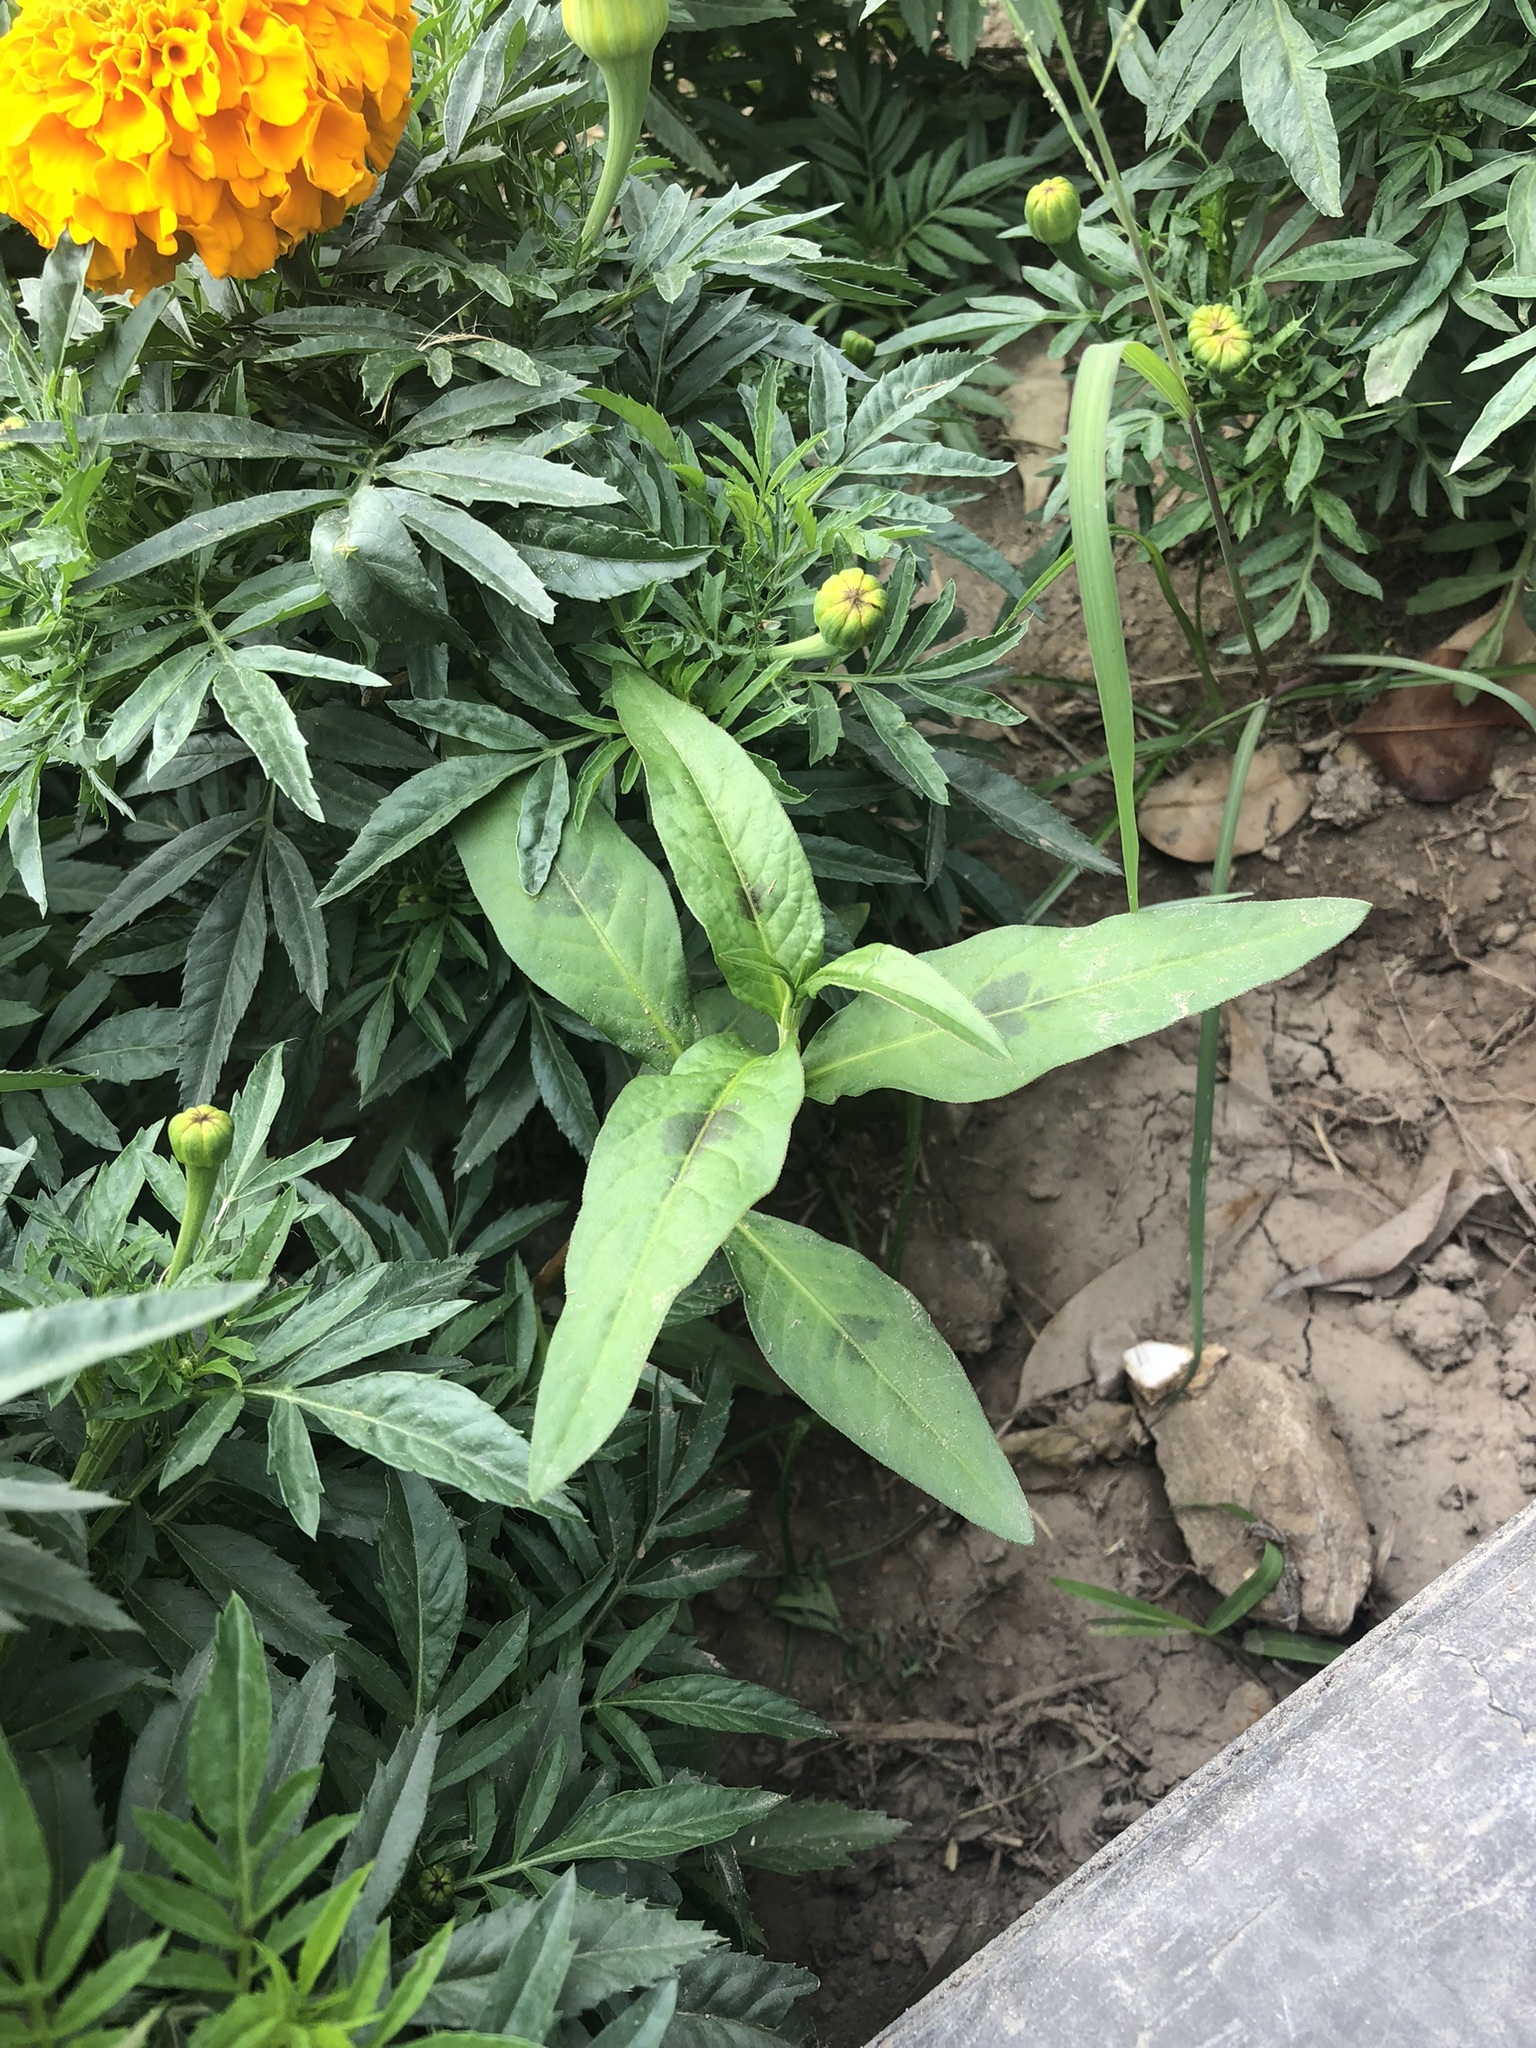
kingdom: Plantae
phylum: Tracheophyta
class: Magnoliopsida
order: Gentianales
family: Apocynaceae
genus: Asclepias
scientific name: Asclepias curassavica
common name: Bloodflower
